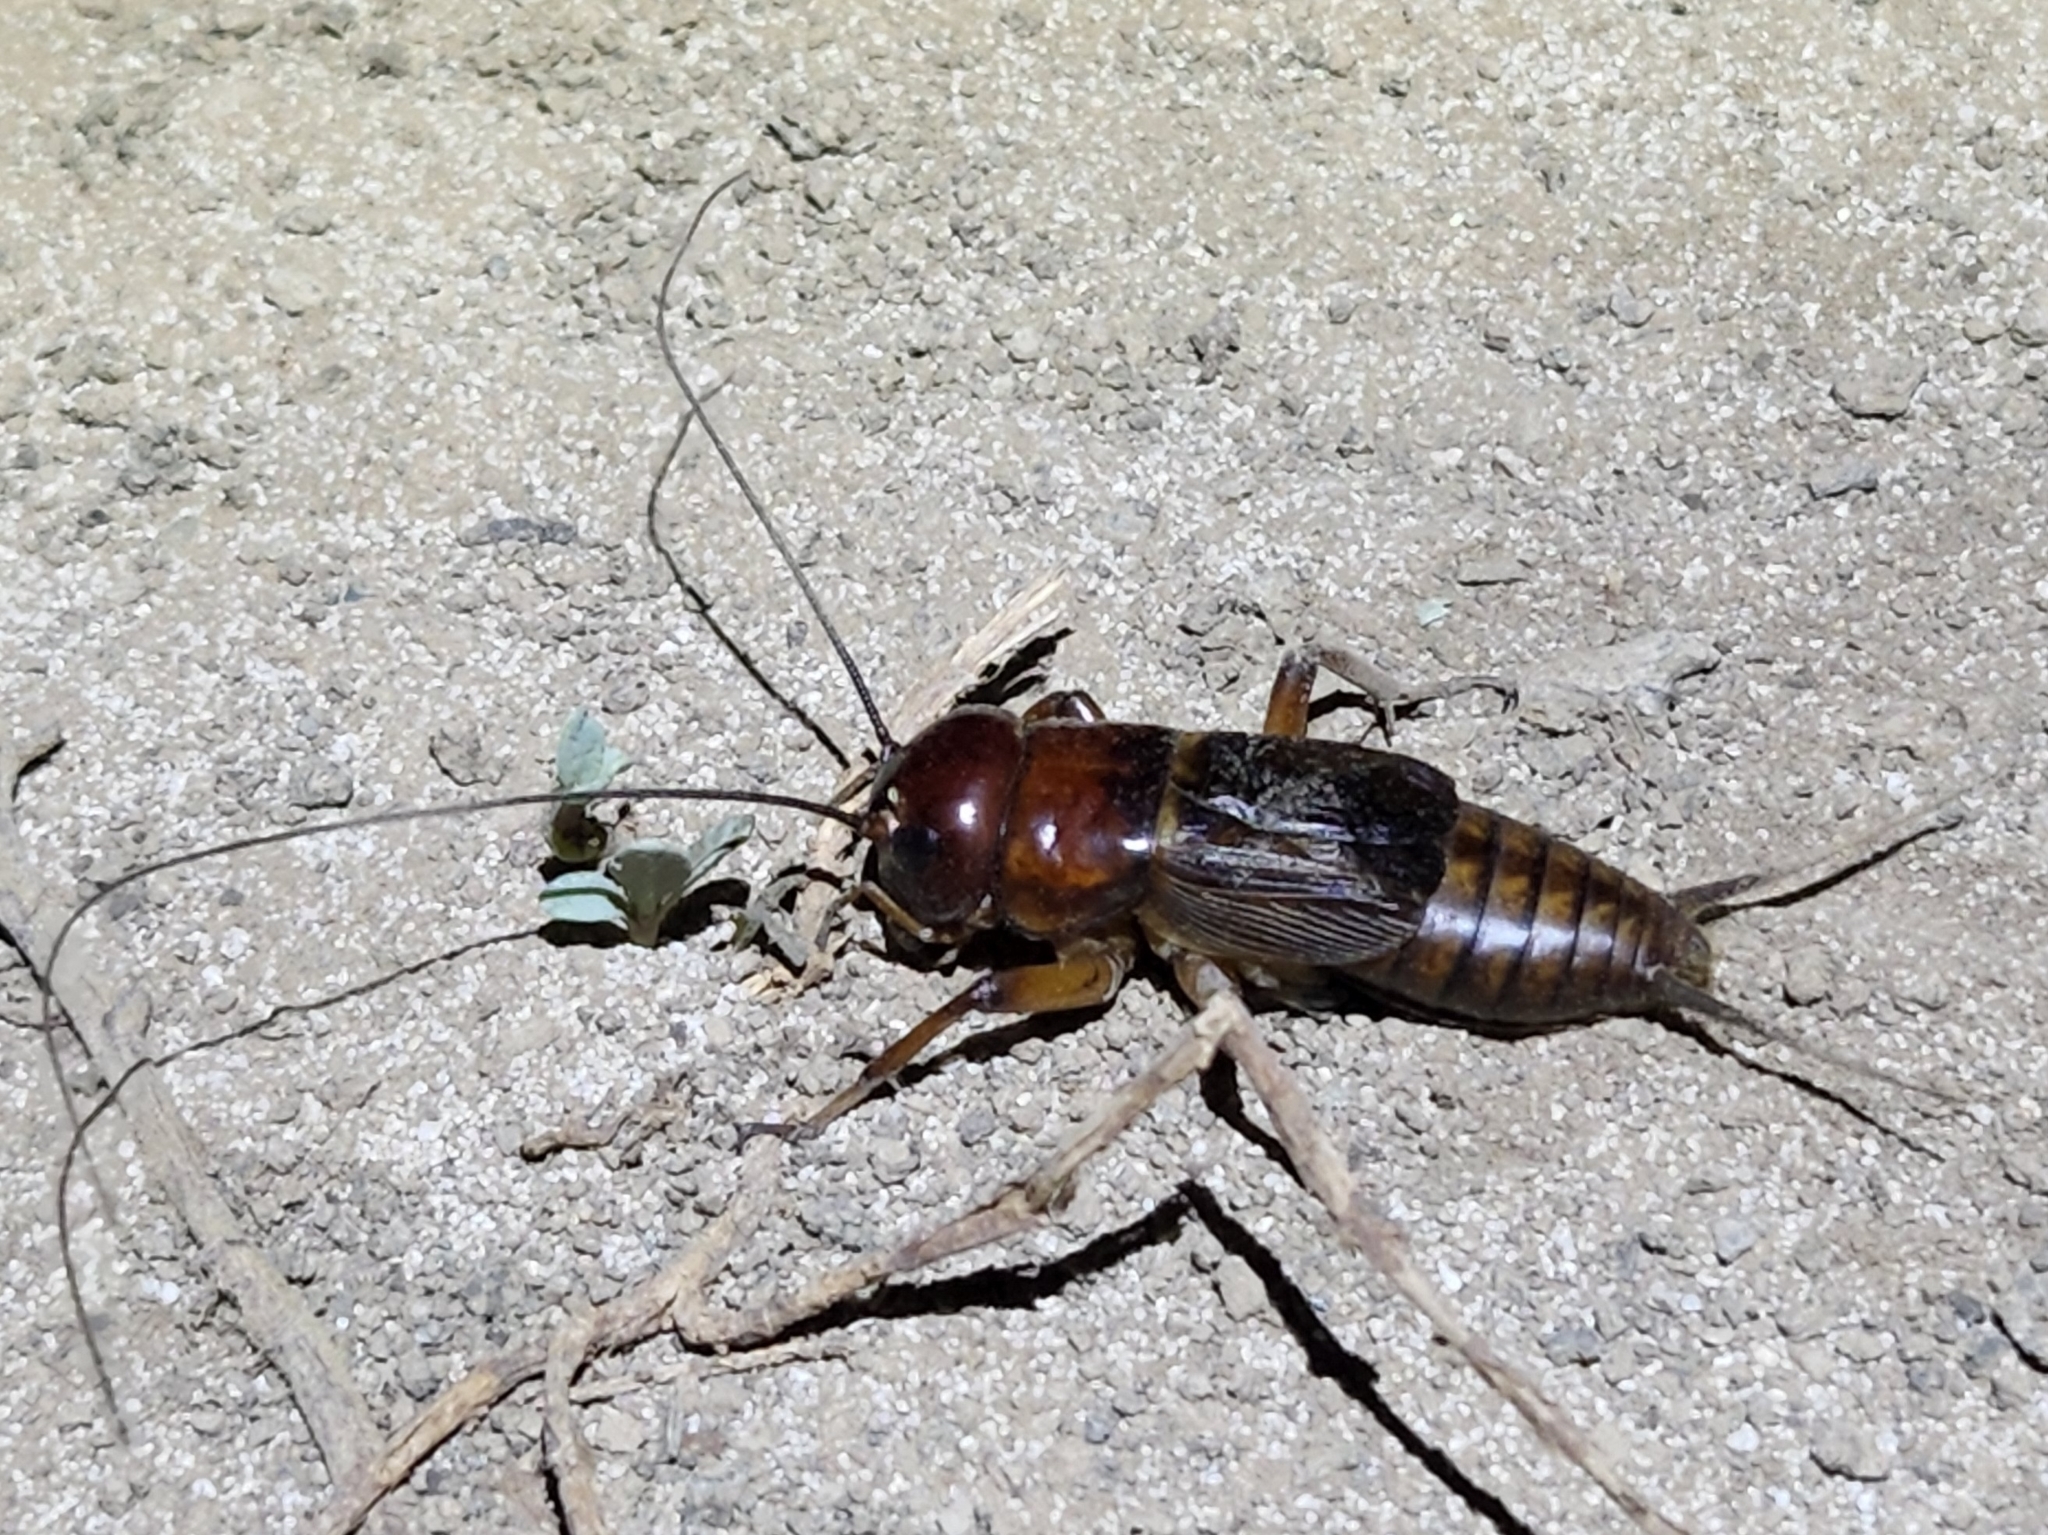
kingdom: Animalia
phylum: Arthropoda
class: Insecta
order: Orthoptera
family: Gryllidae
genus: Gryllus
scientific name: Gryllus alexanderi
